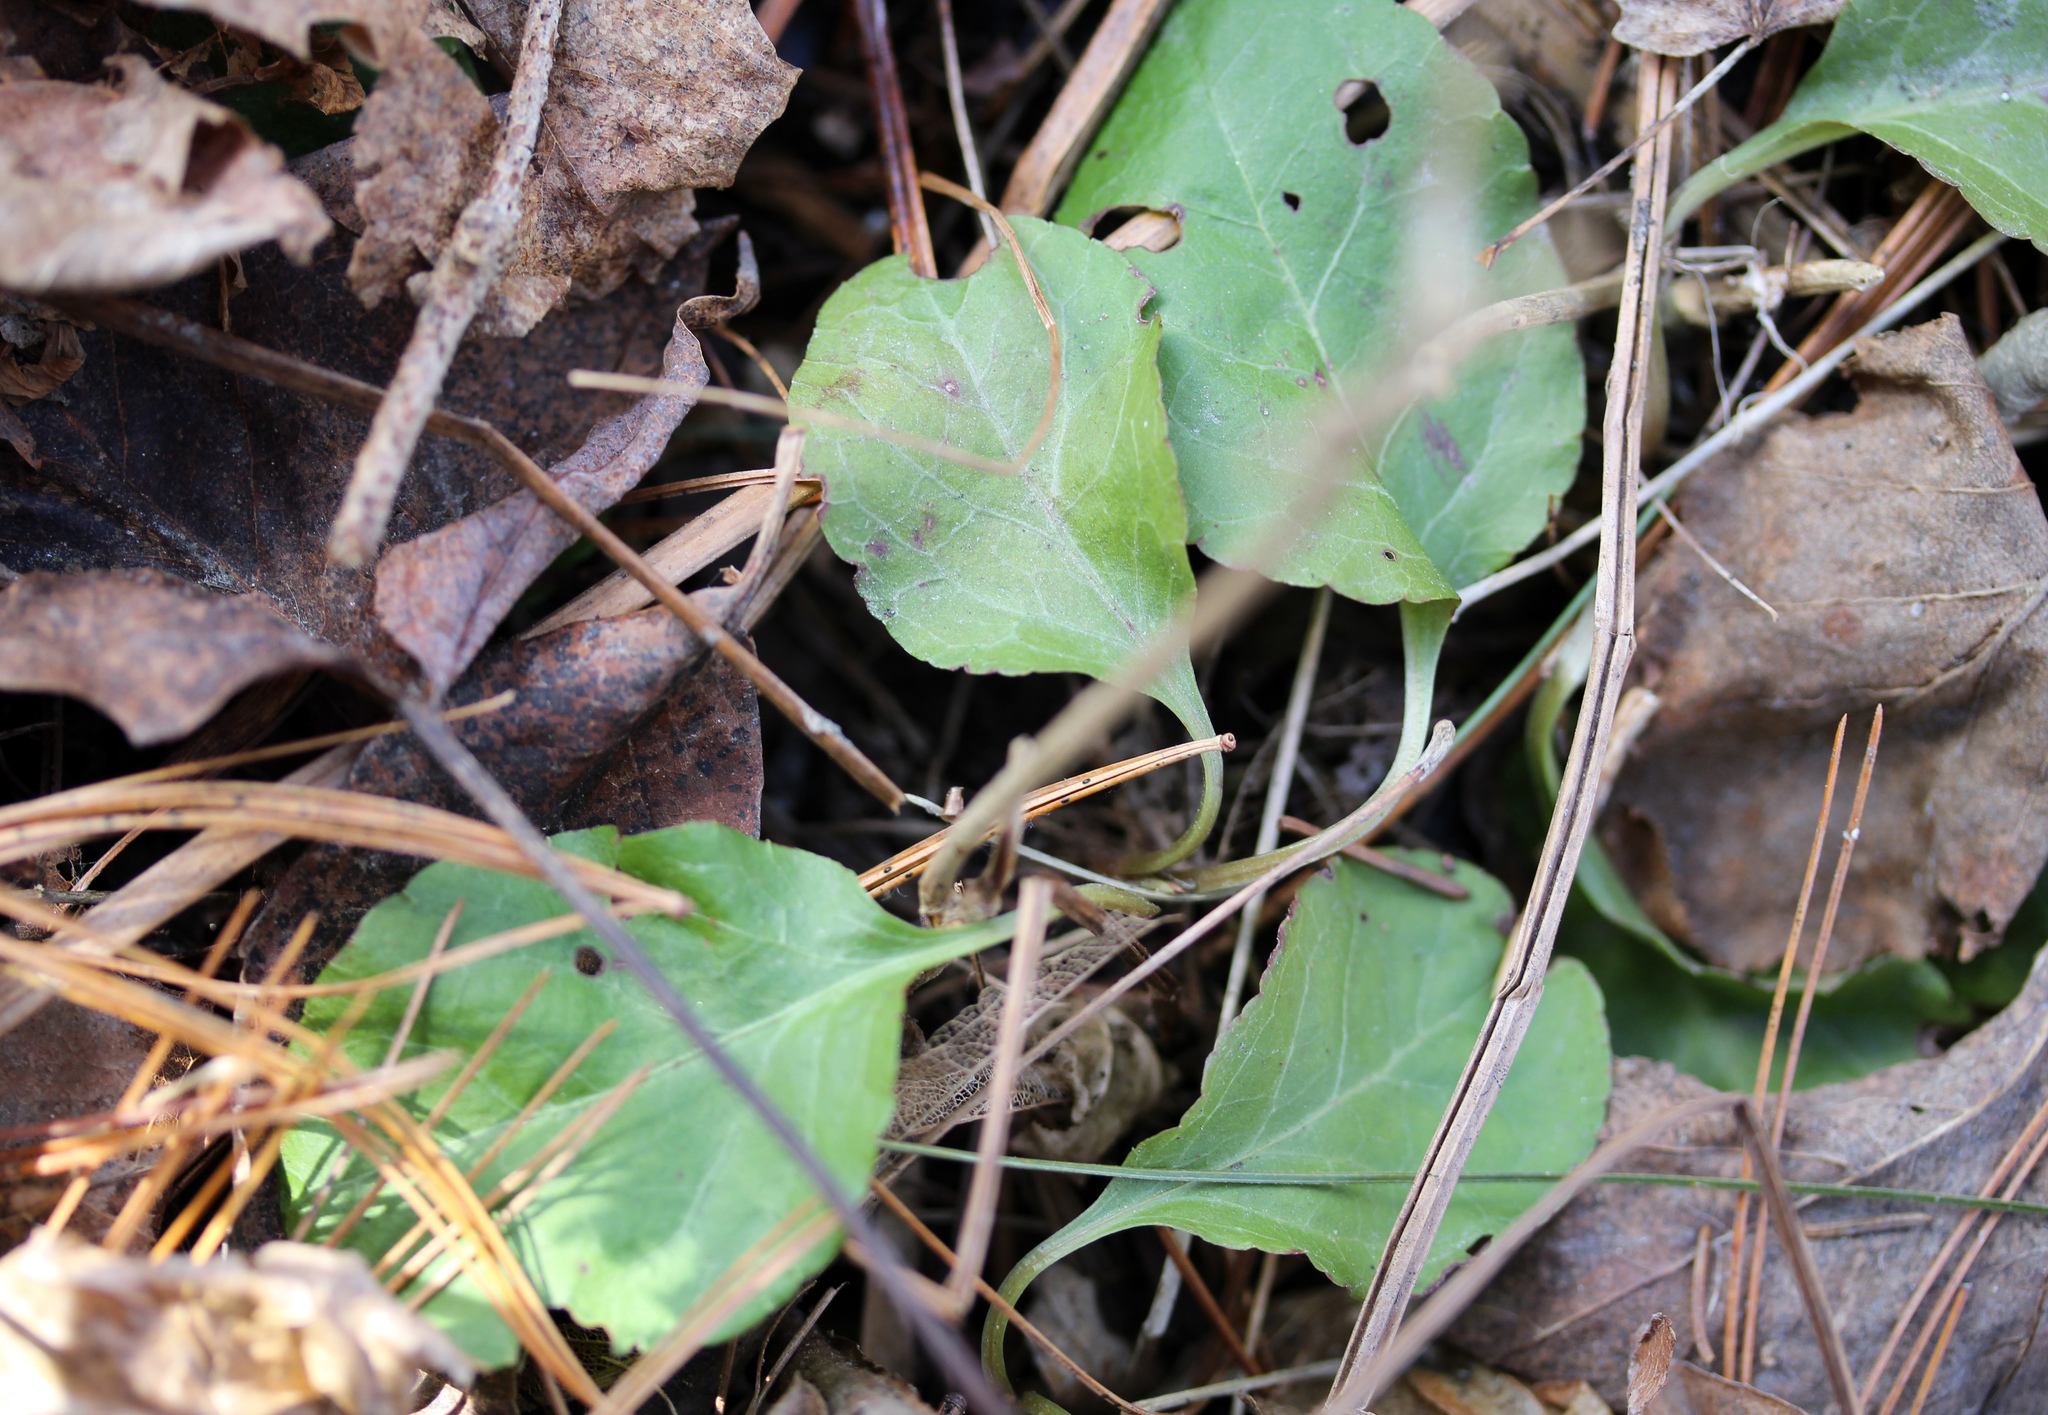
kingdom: Plantae
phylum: Tracheophyta
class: Magnoliopsida
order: Ericales
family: Ericaceae
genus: Pyrola
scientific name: Pyrola elliptica
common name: Shinleaf
